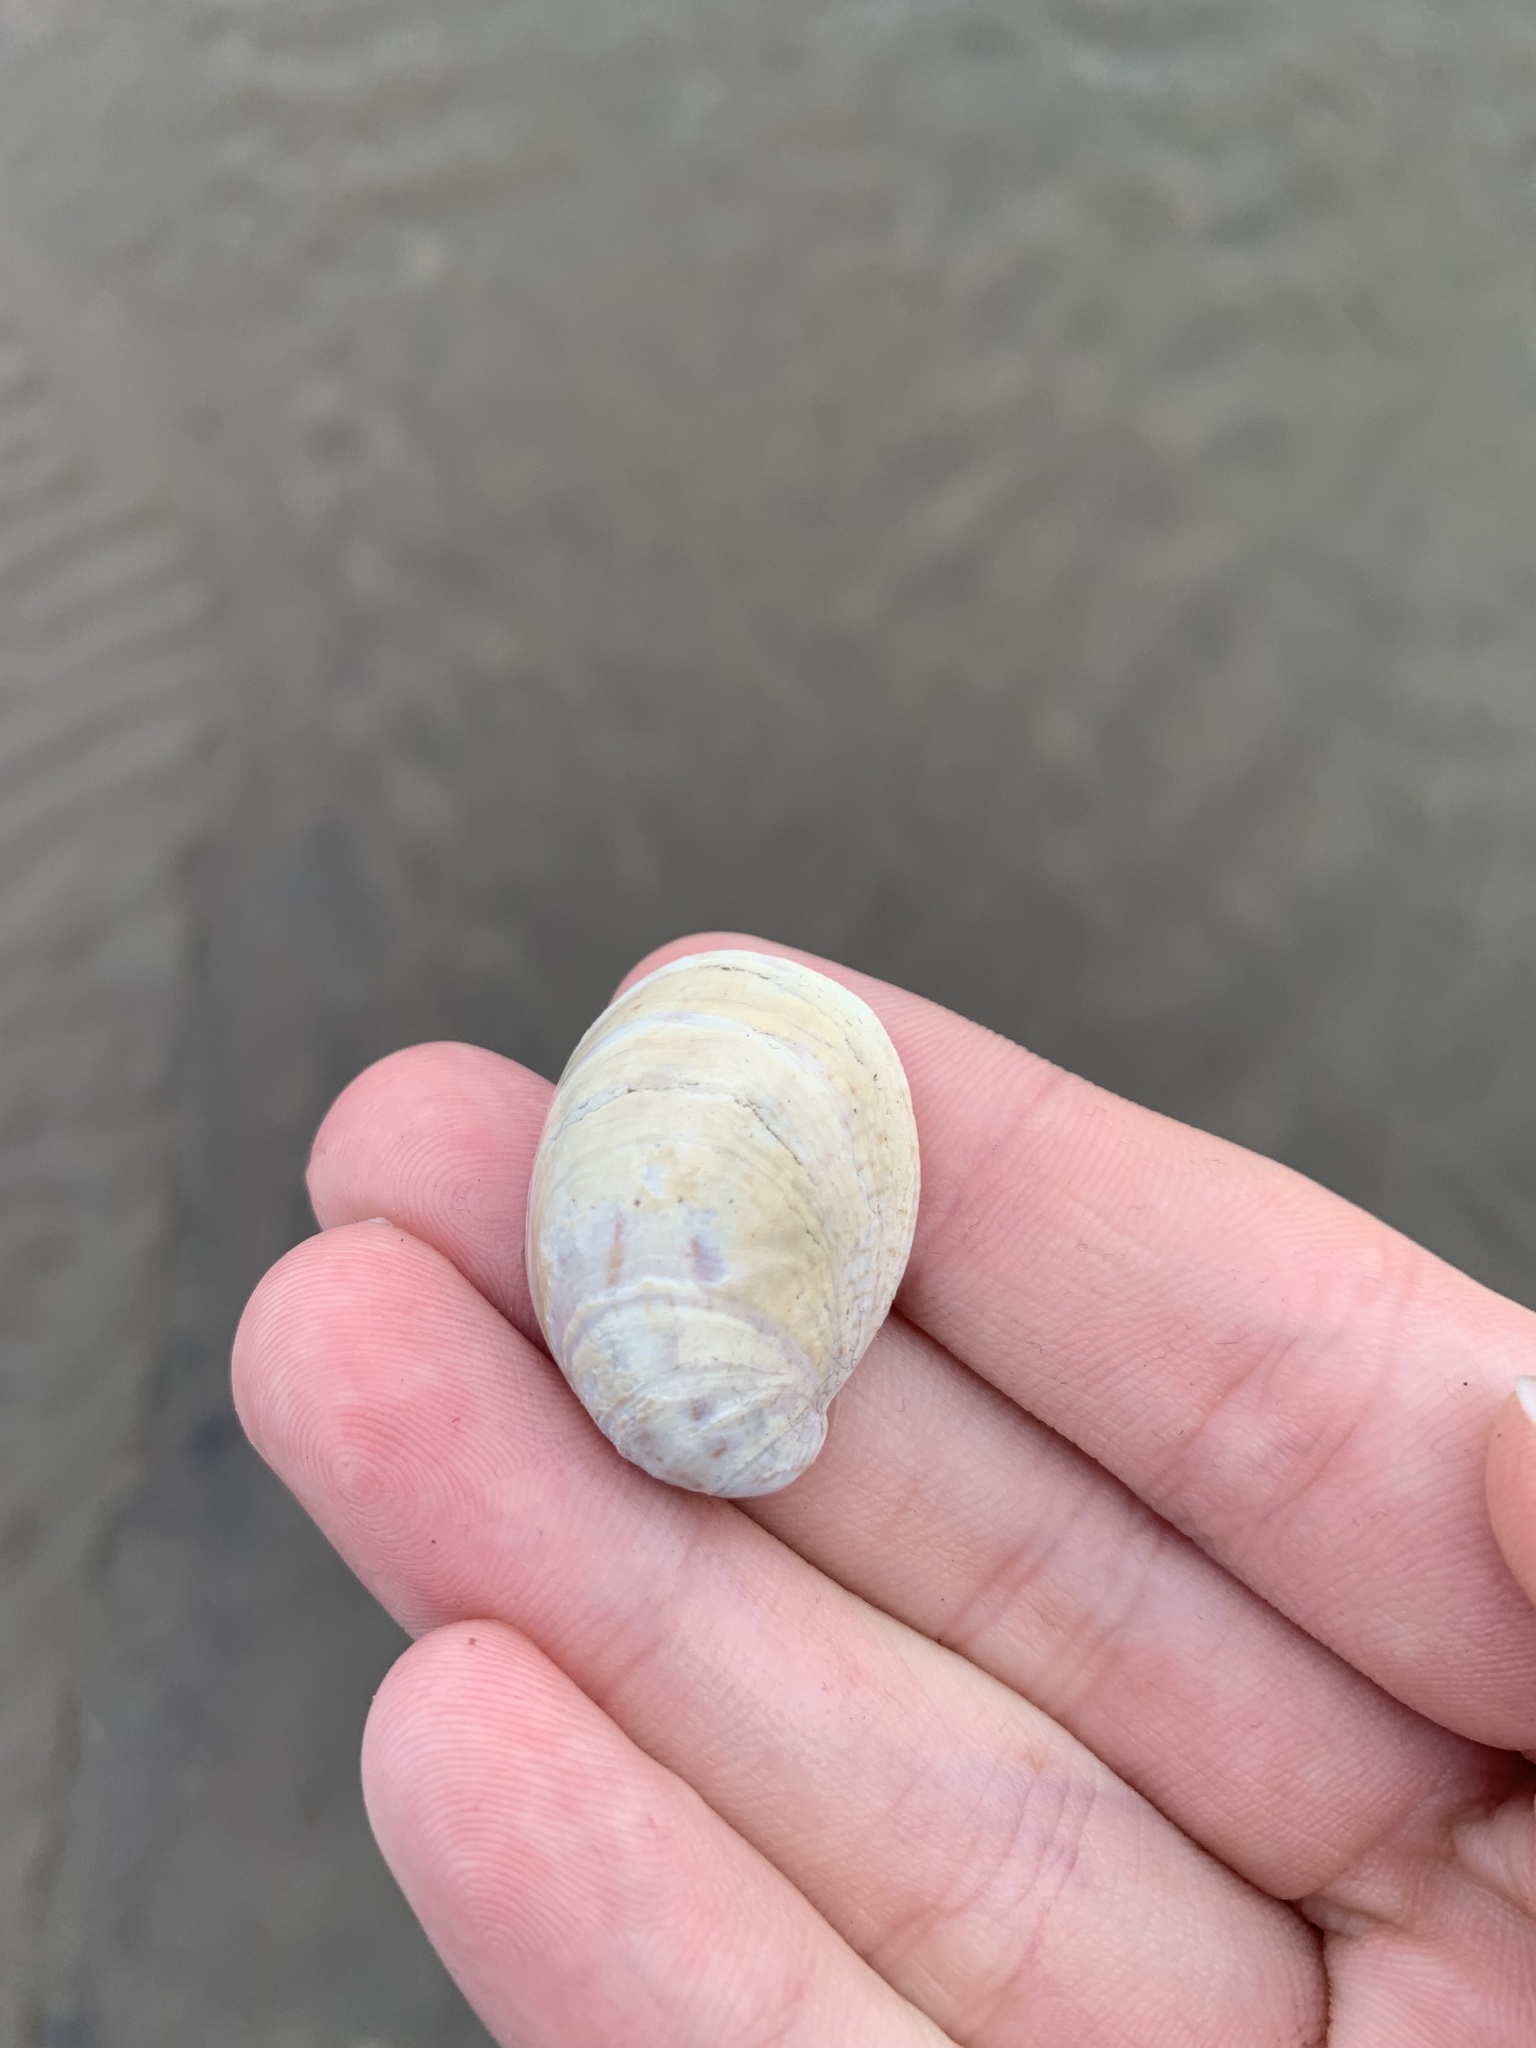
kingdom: Animalia
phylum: Mollusca
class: Gastropoda
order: Littorinimorpha
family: Calyptraeidae
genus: Crepidula
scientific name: Crepidula fornicata
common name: Slipper limpet
